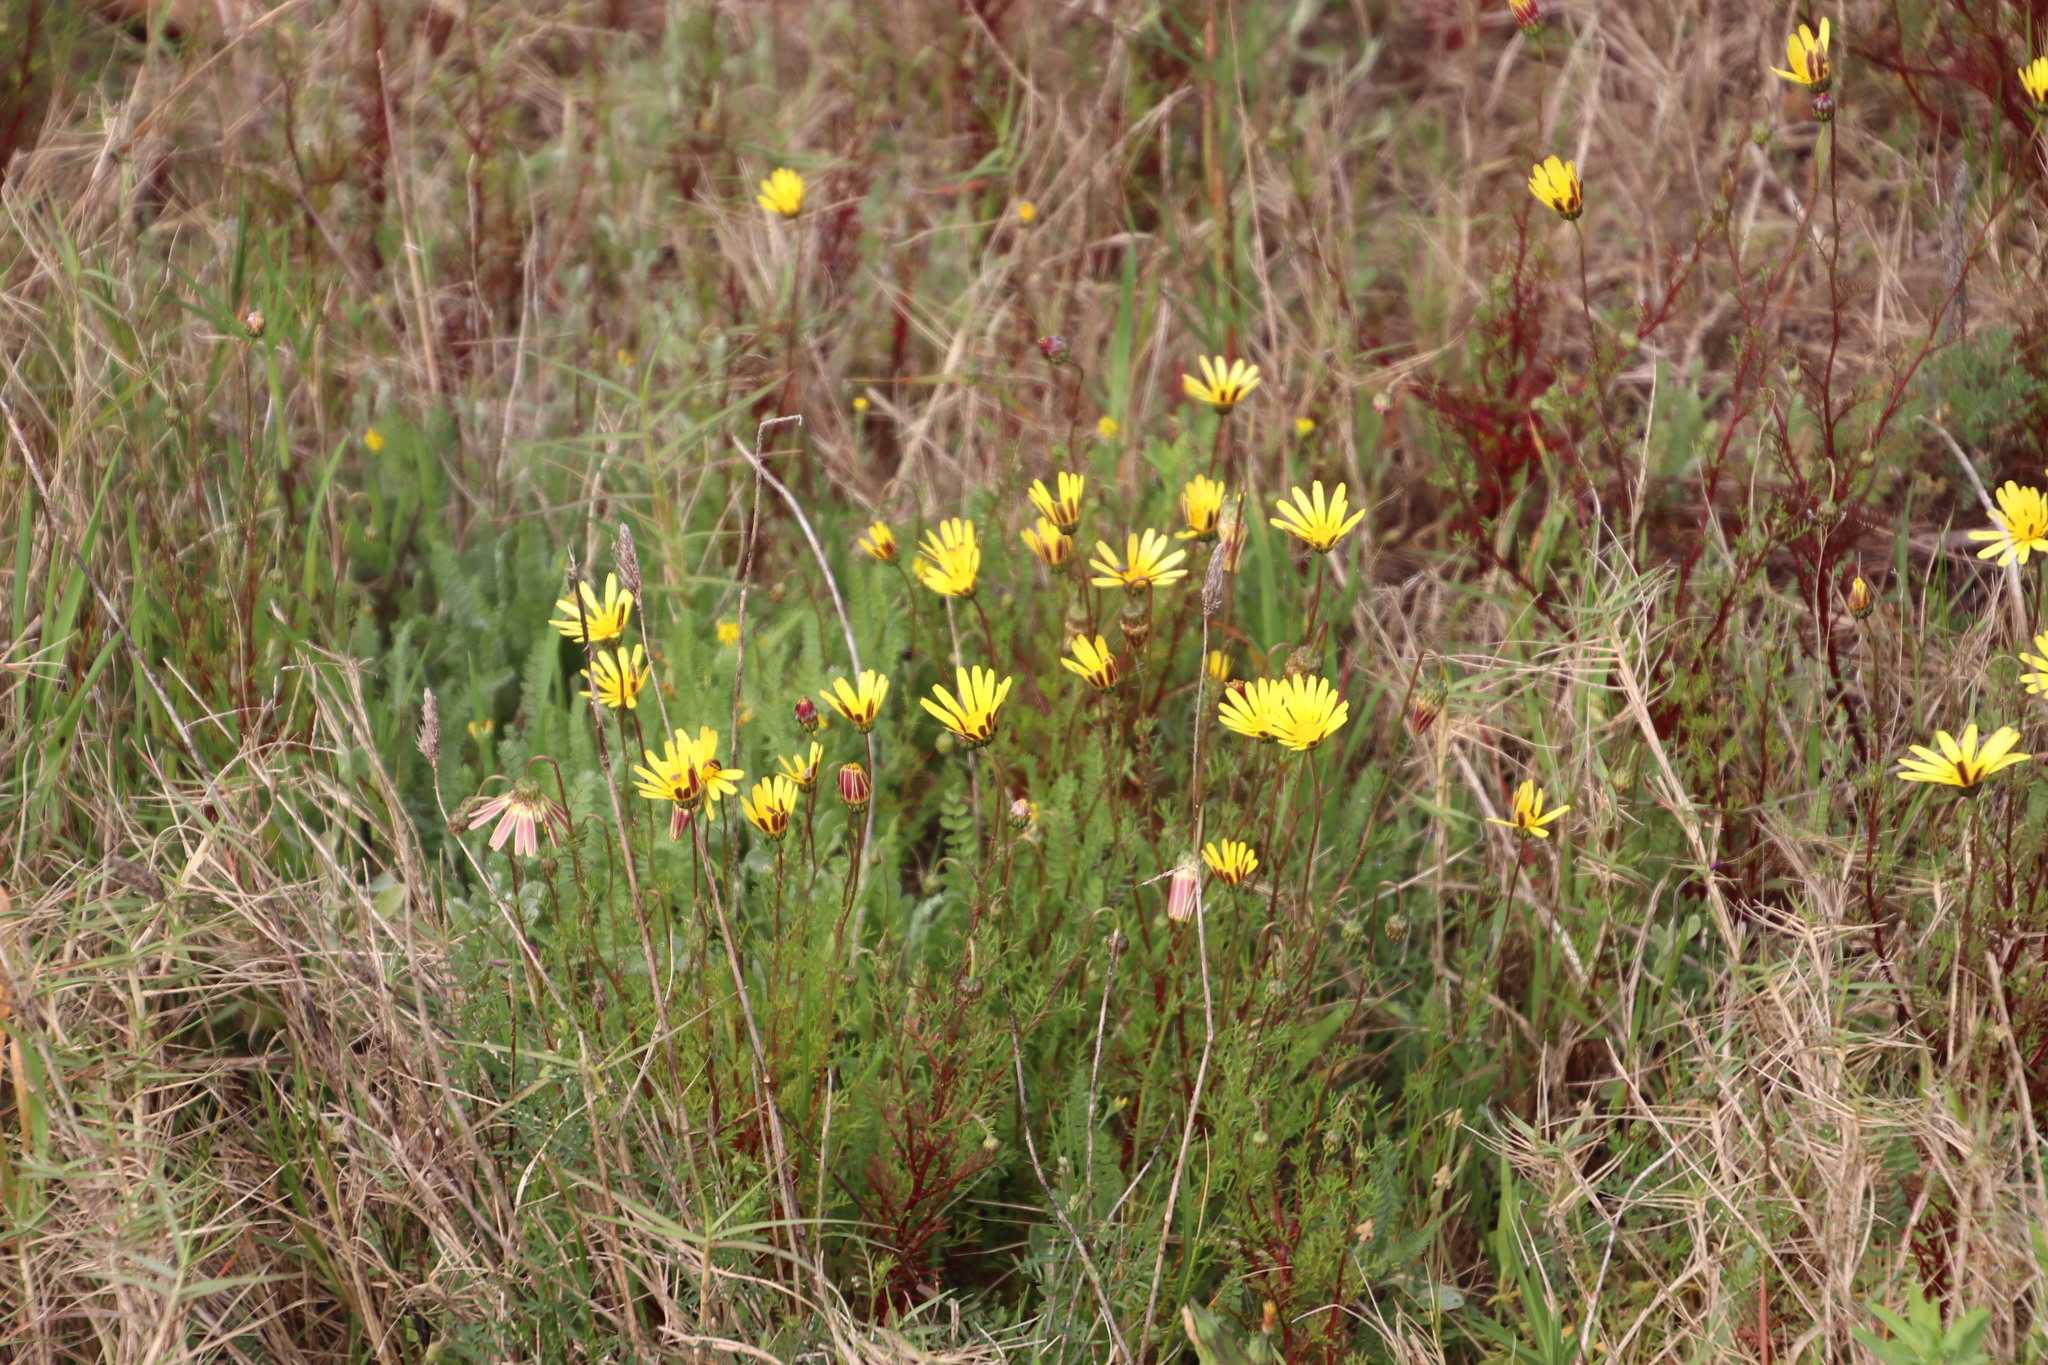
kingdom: Plantae
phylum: Tracheophyta
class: Magnoliopsida
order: Asterales
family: Asteraceae
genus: Ursinia
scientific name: Ursinia anthemoides
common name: Ursinia
